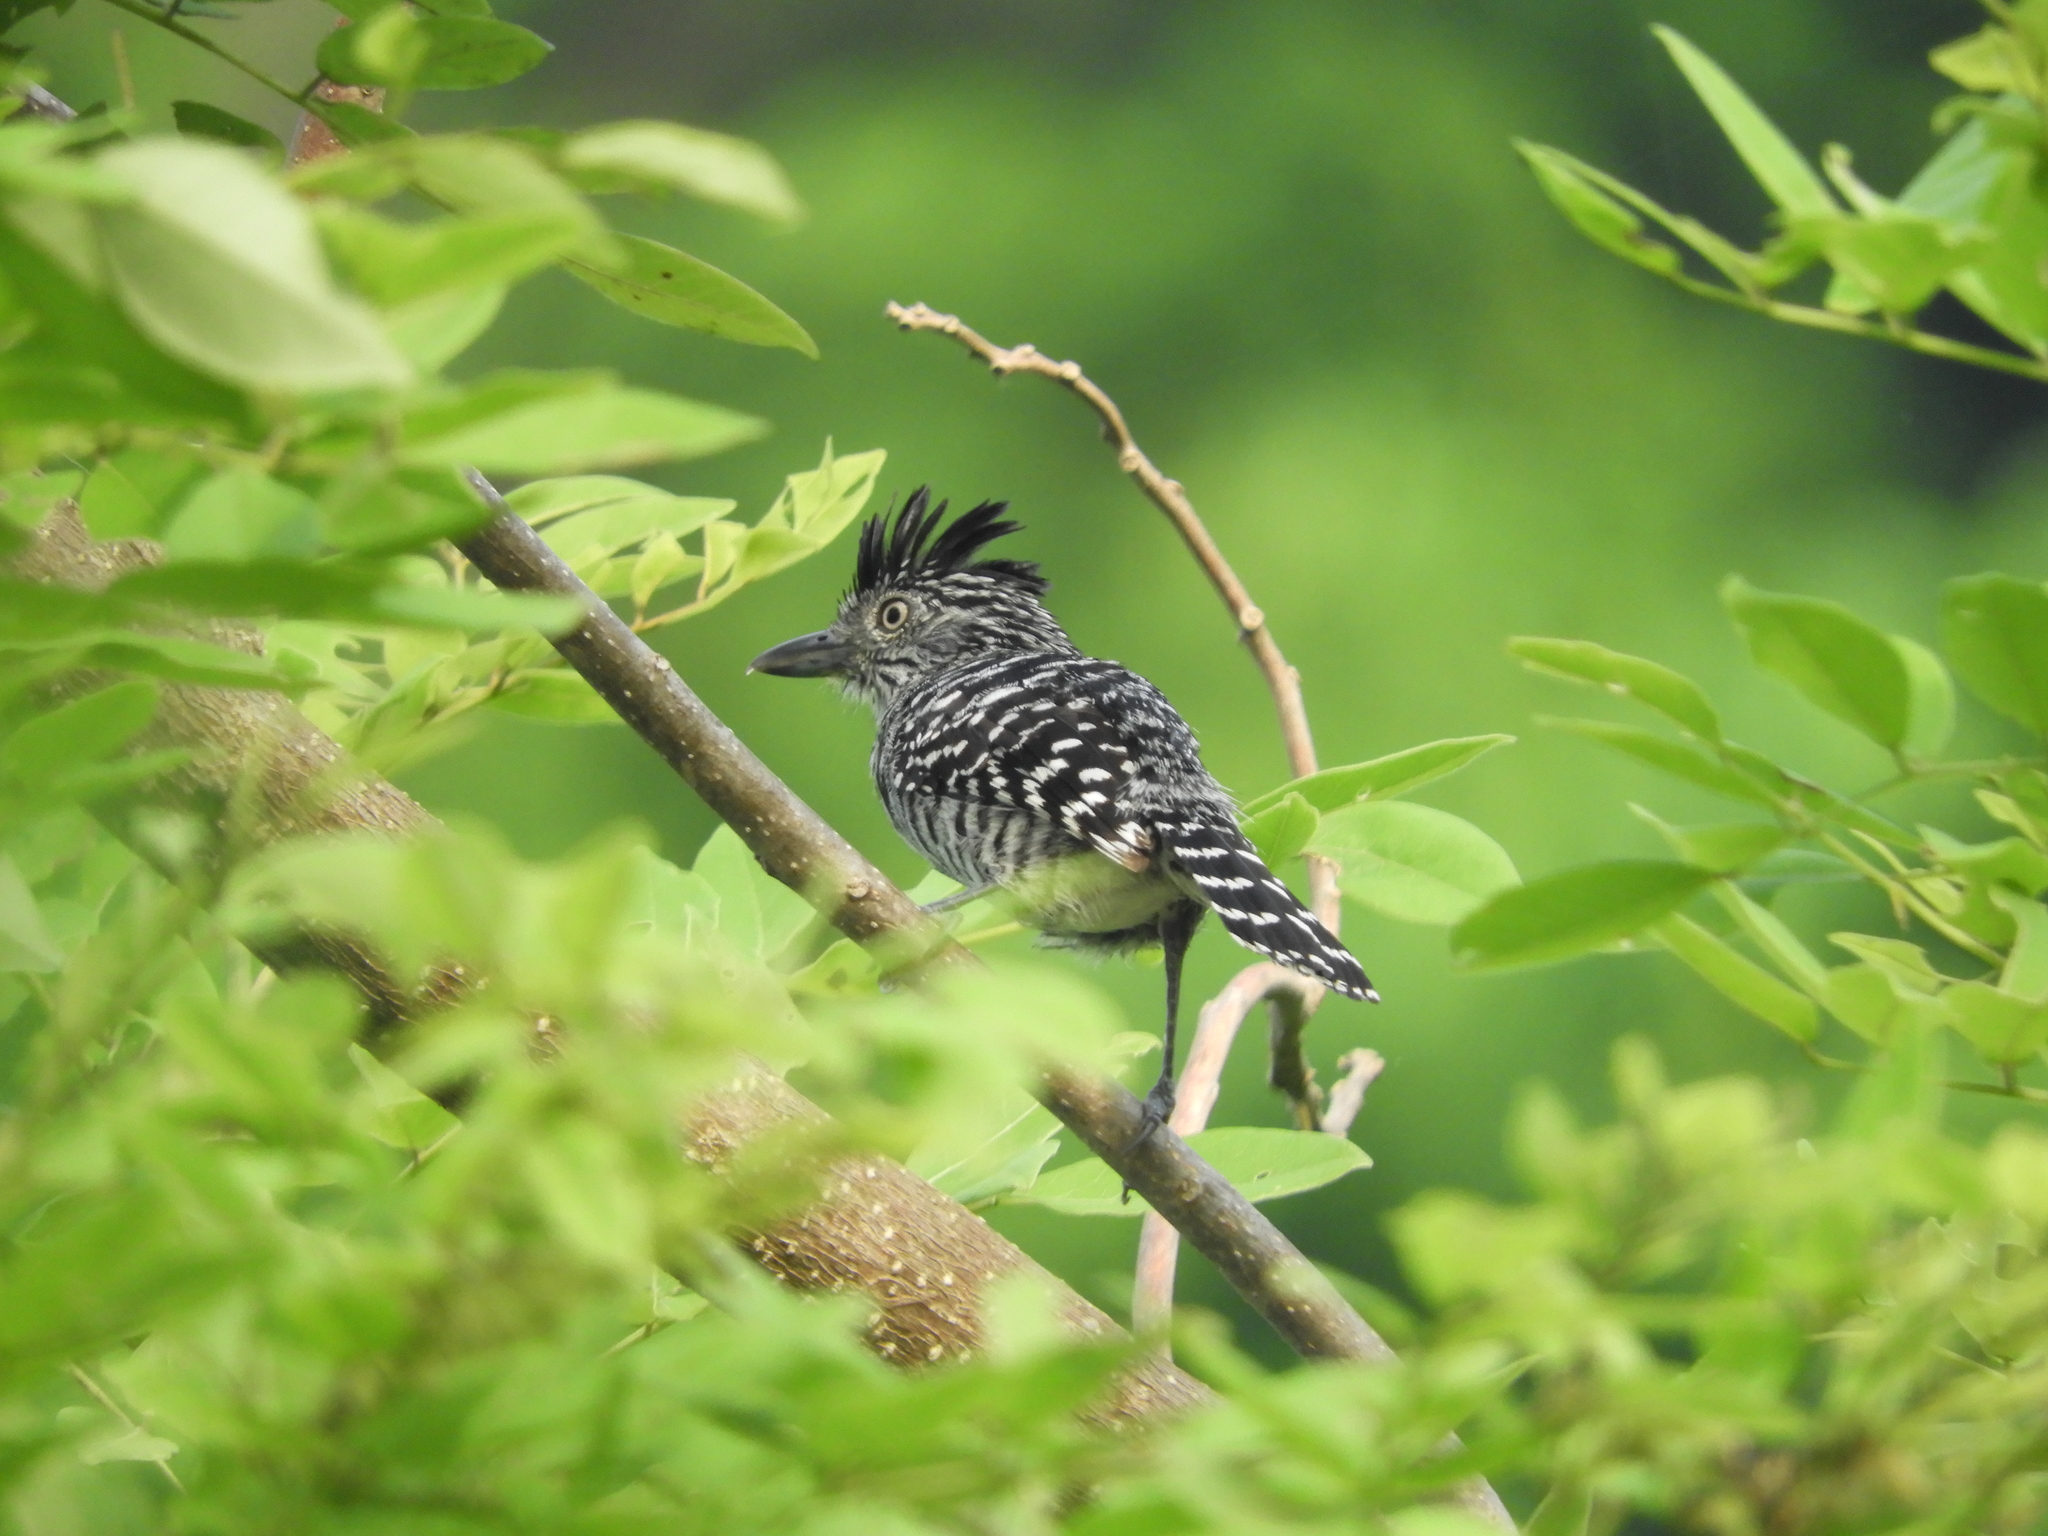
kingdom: Animalia
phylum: Chordata
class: Aves
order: Passeriformes
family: Thamnophilidae
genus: Thamnophilus
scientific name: Thamnophilus doliatus
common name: Barred antshrike
